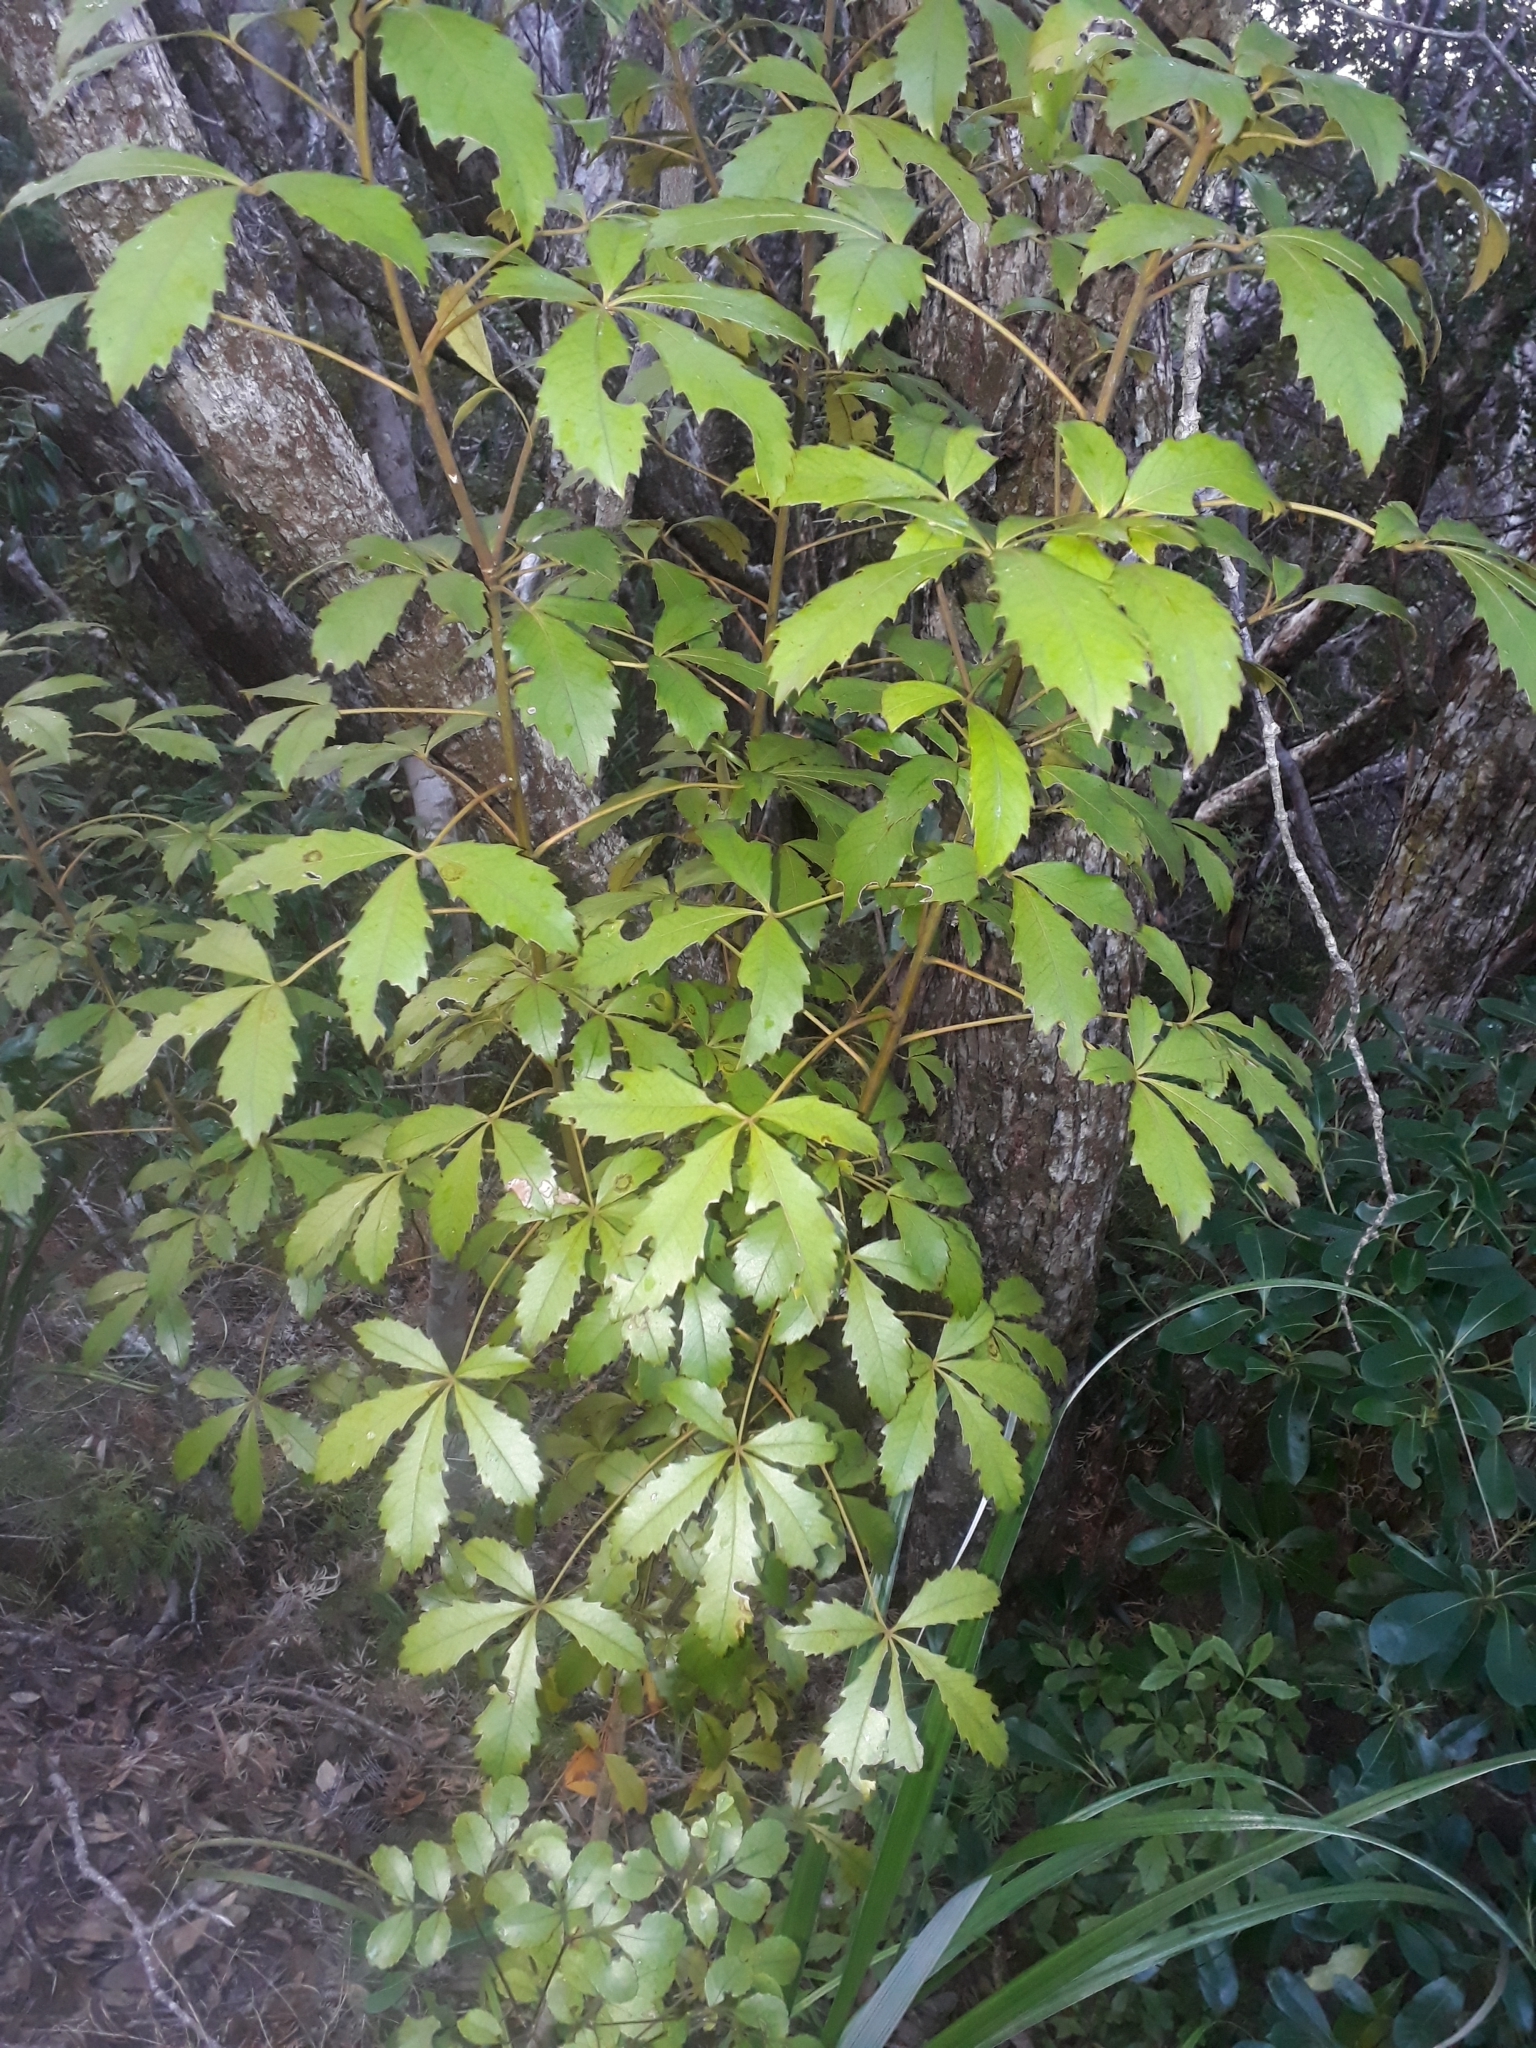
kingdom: Plantae
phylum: Tracheophyta
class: Magnoliopsida
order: Apiales
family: Araliaceae
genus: Pseudopanax
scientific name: Pseudopanax discolor
